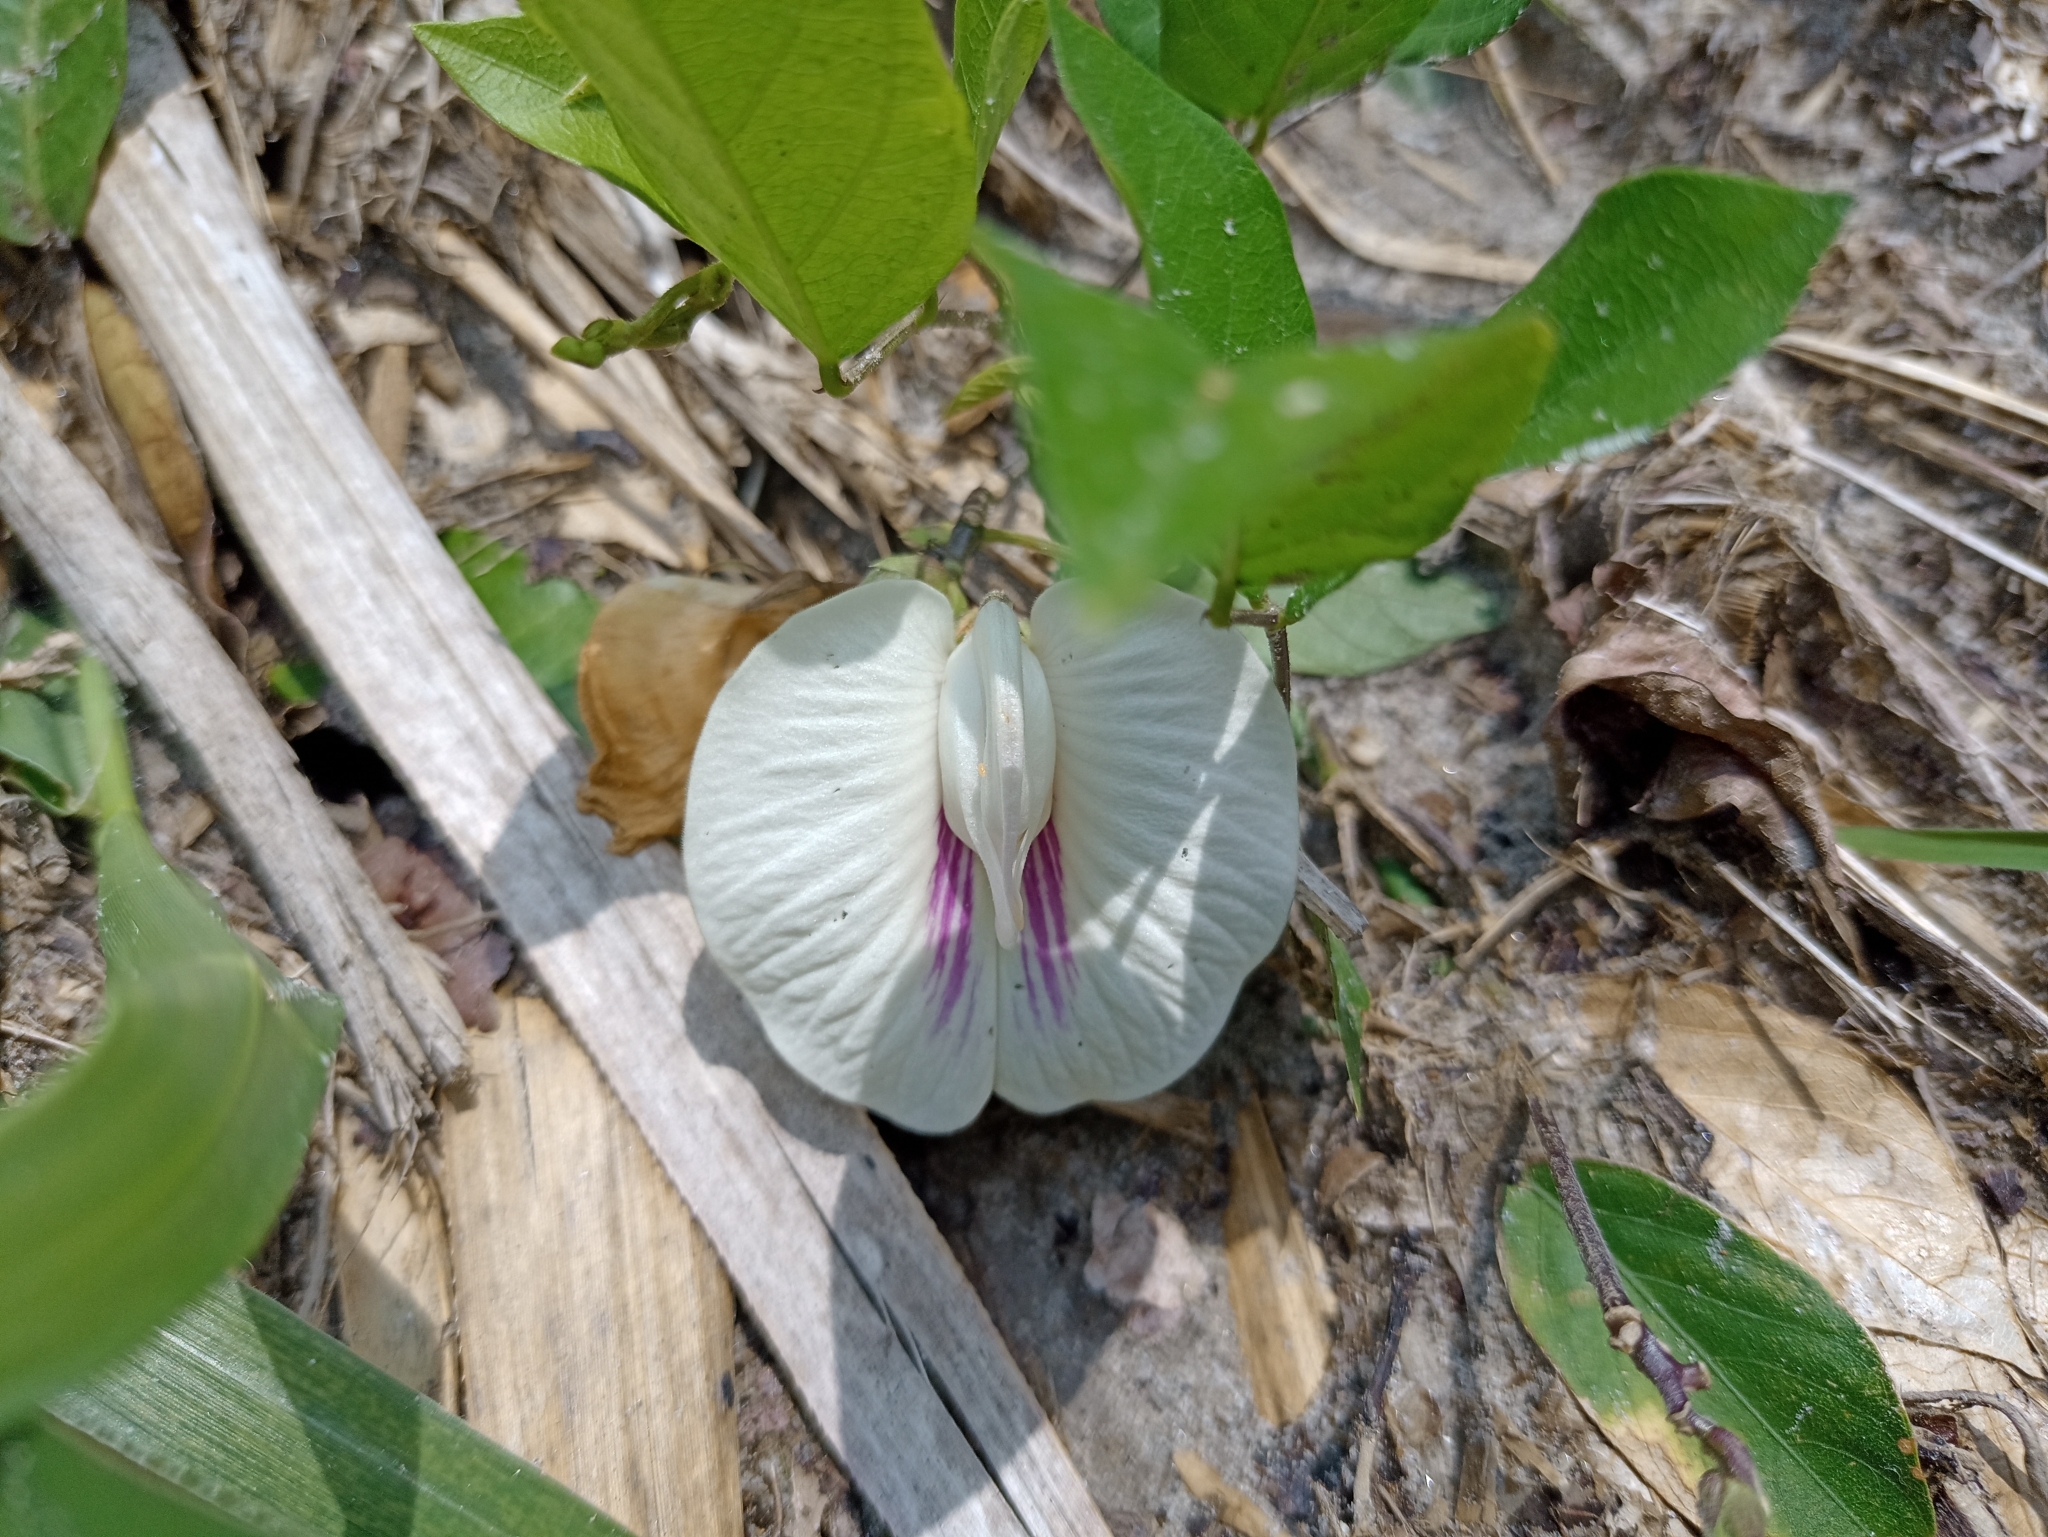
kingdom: Plantae
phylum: Tracheophyta
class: Magnoliopsida
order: Fabales
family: Fabaceae
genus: Centrosema
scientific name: Centrosema pubescens
